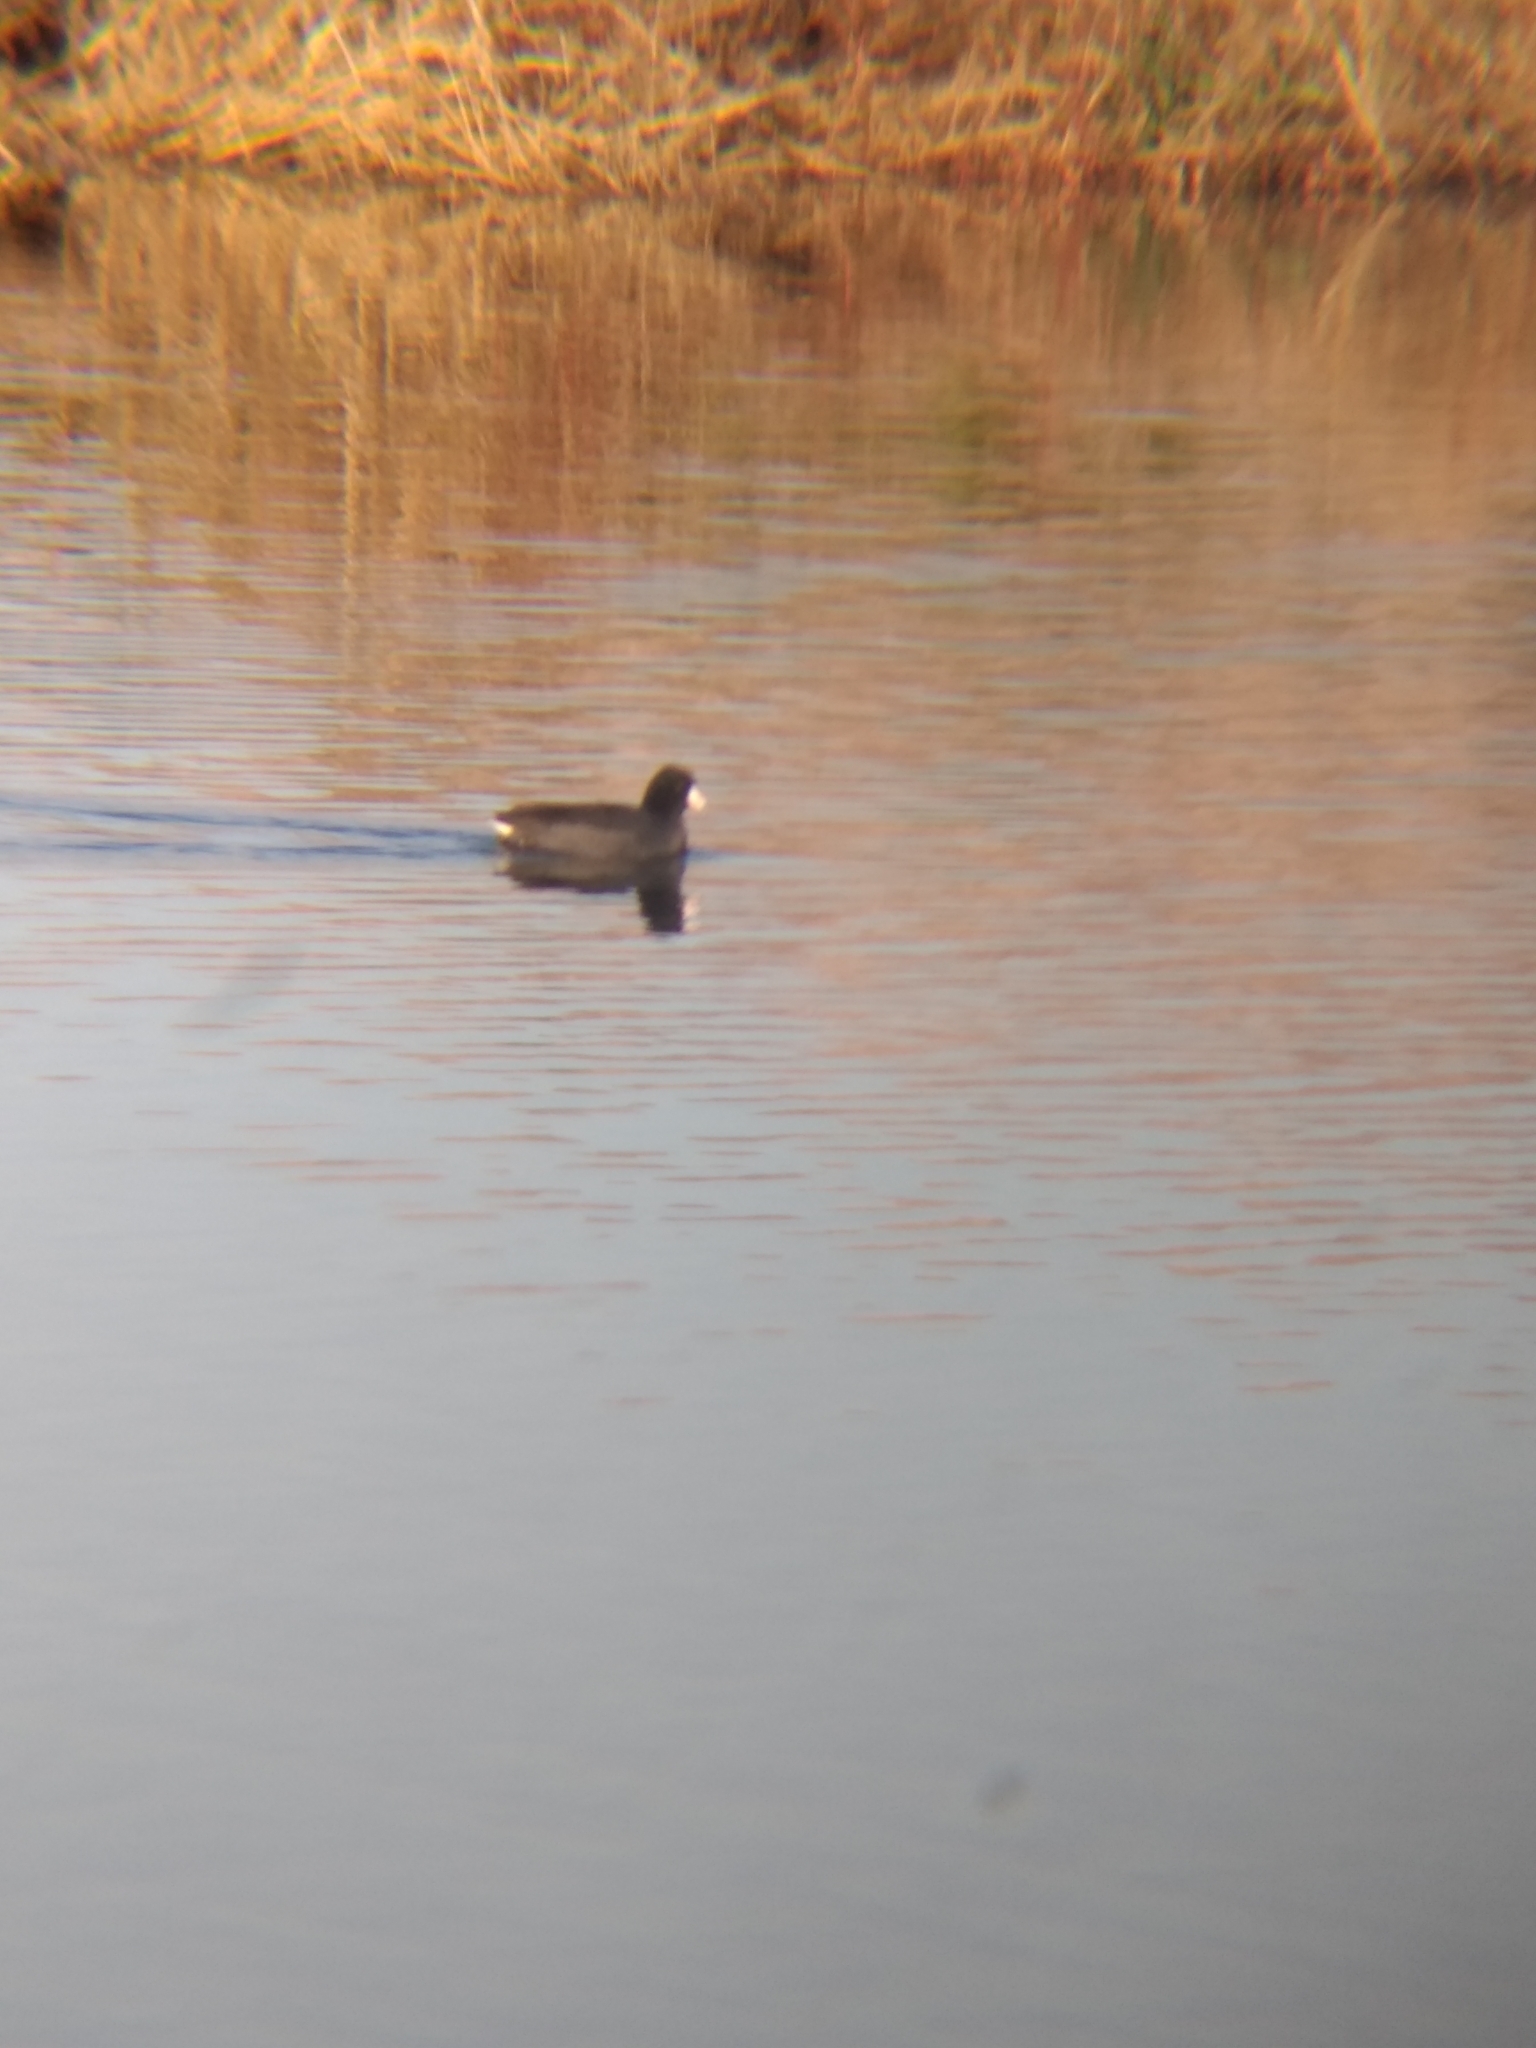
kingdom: Animalia
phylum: Chordata
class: Aves
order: Gruiformes
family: Rallidae
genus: Fulica
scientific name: Fulica americana
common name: American coot
